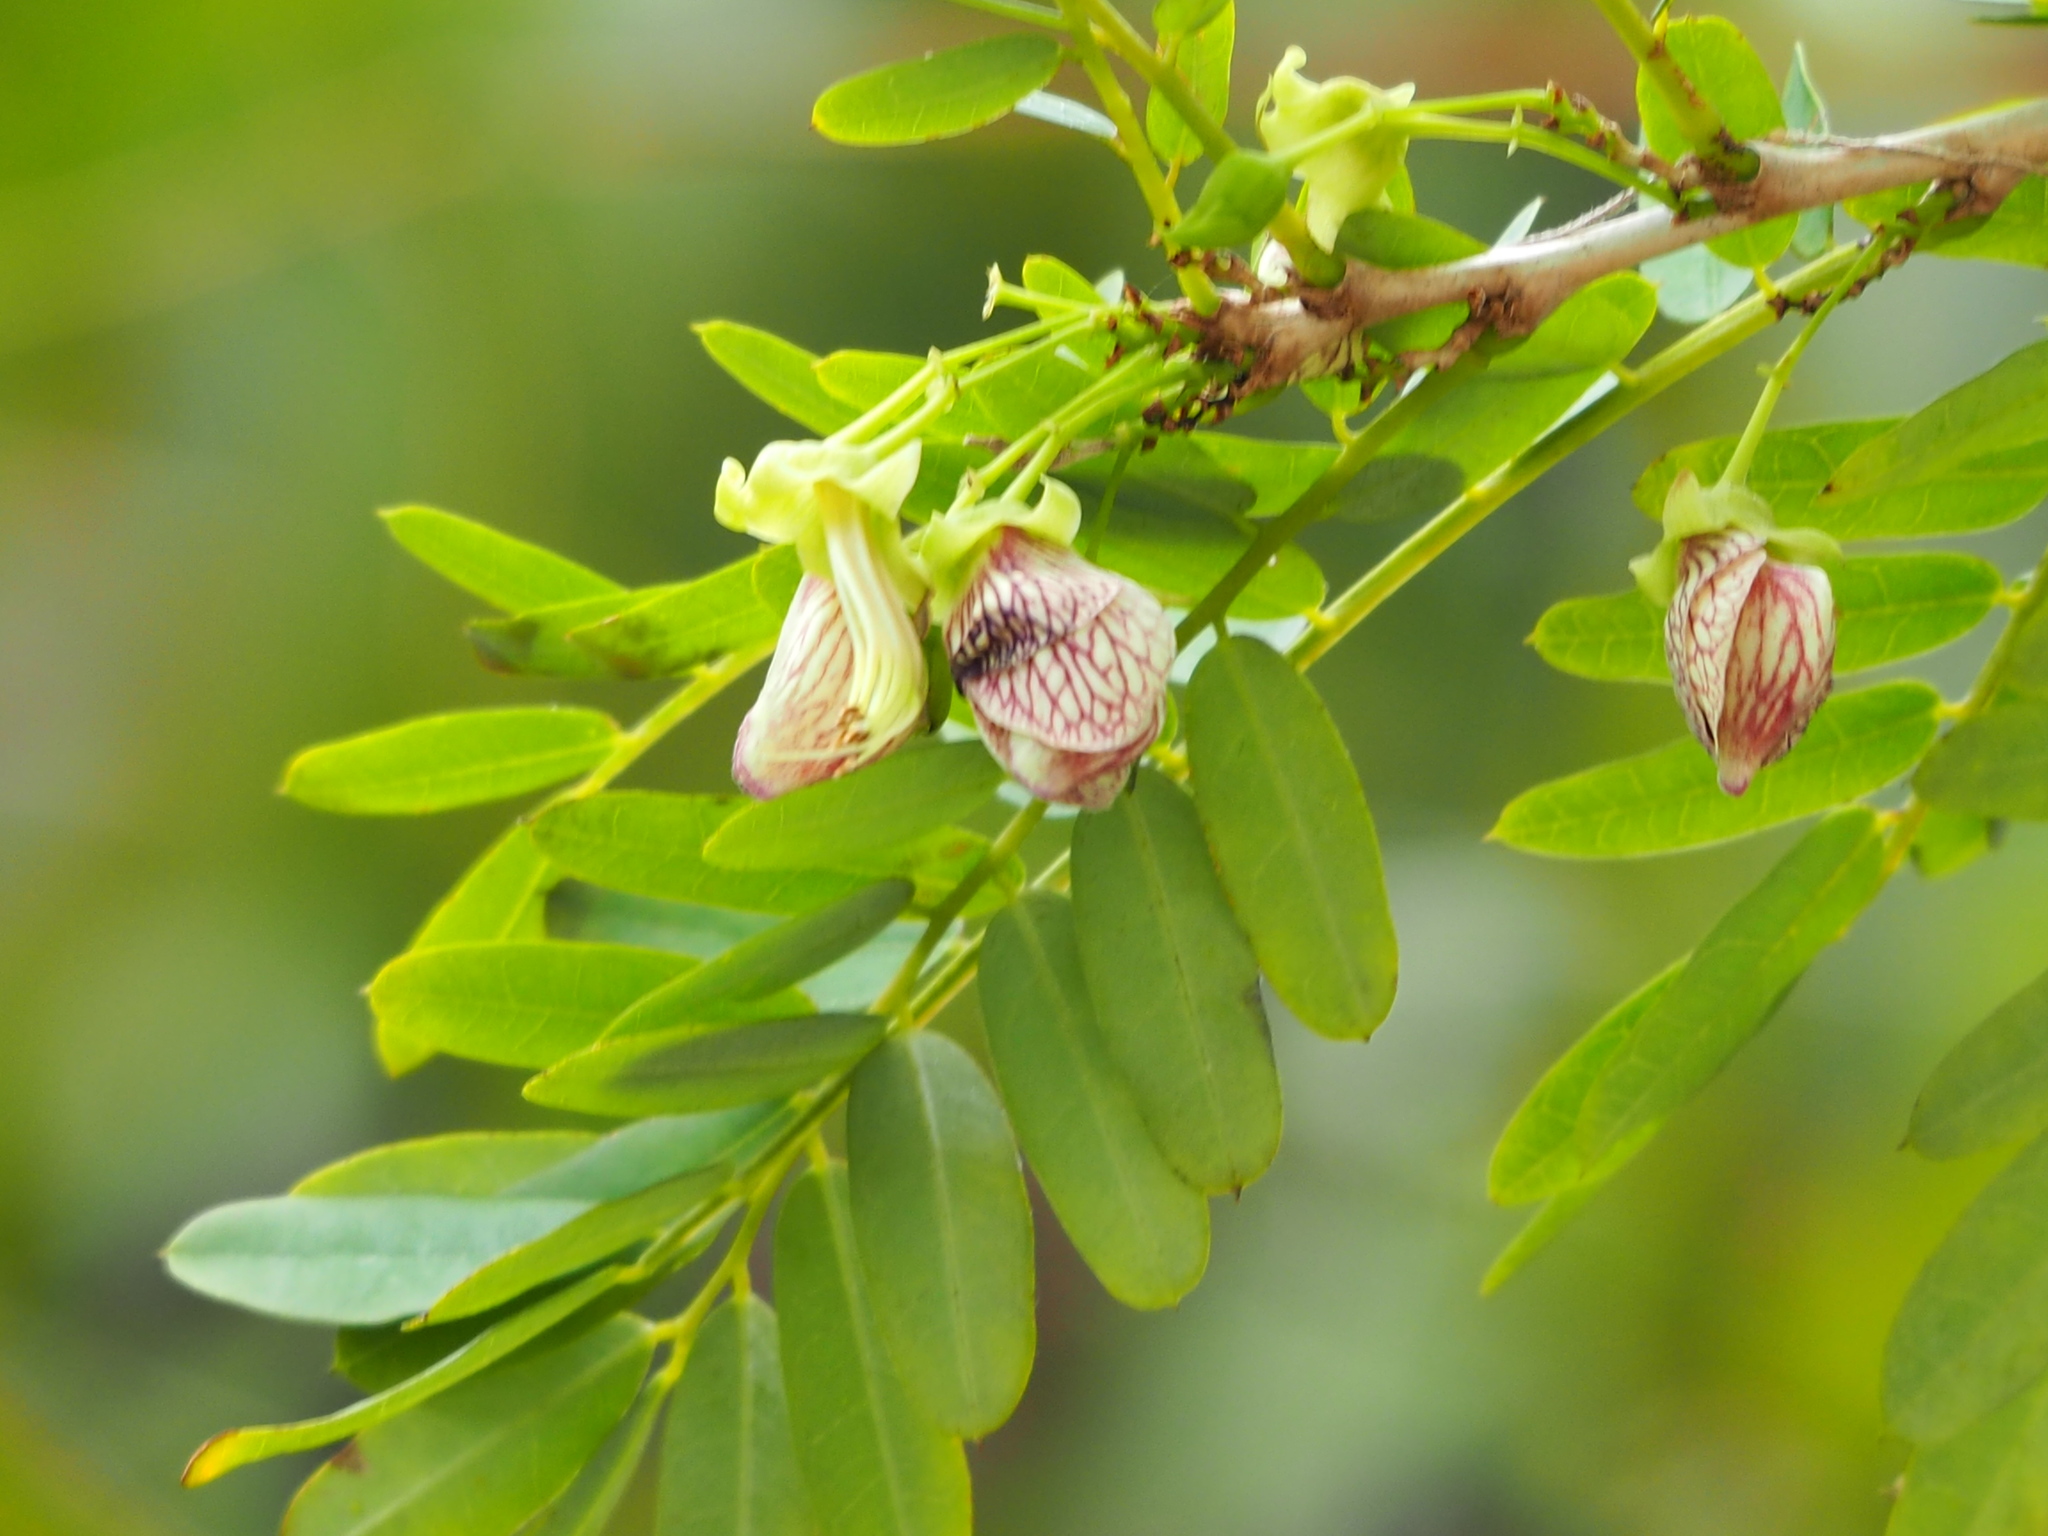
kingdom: Plantae
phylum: Tracheophyta
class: Magnoliopsida
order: Fabales
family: Fabaceae
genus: Ormocarpum
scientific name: Ormocarpum cochinchinense
